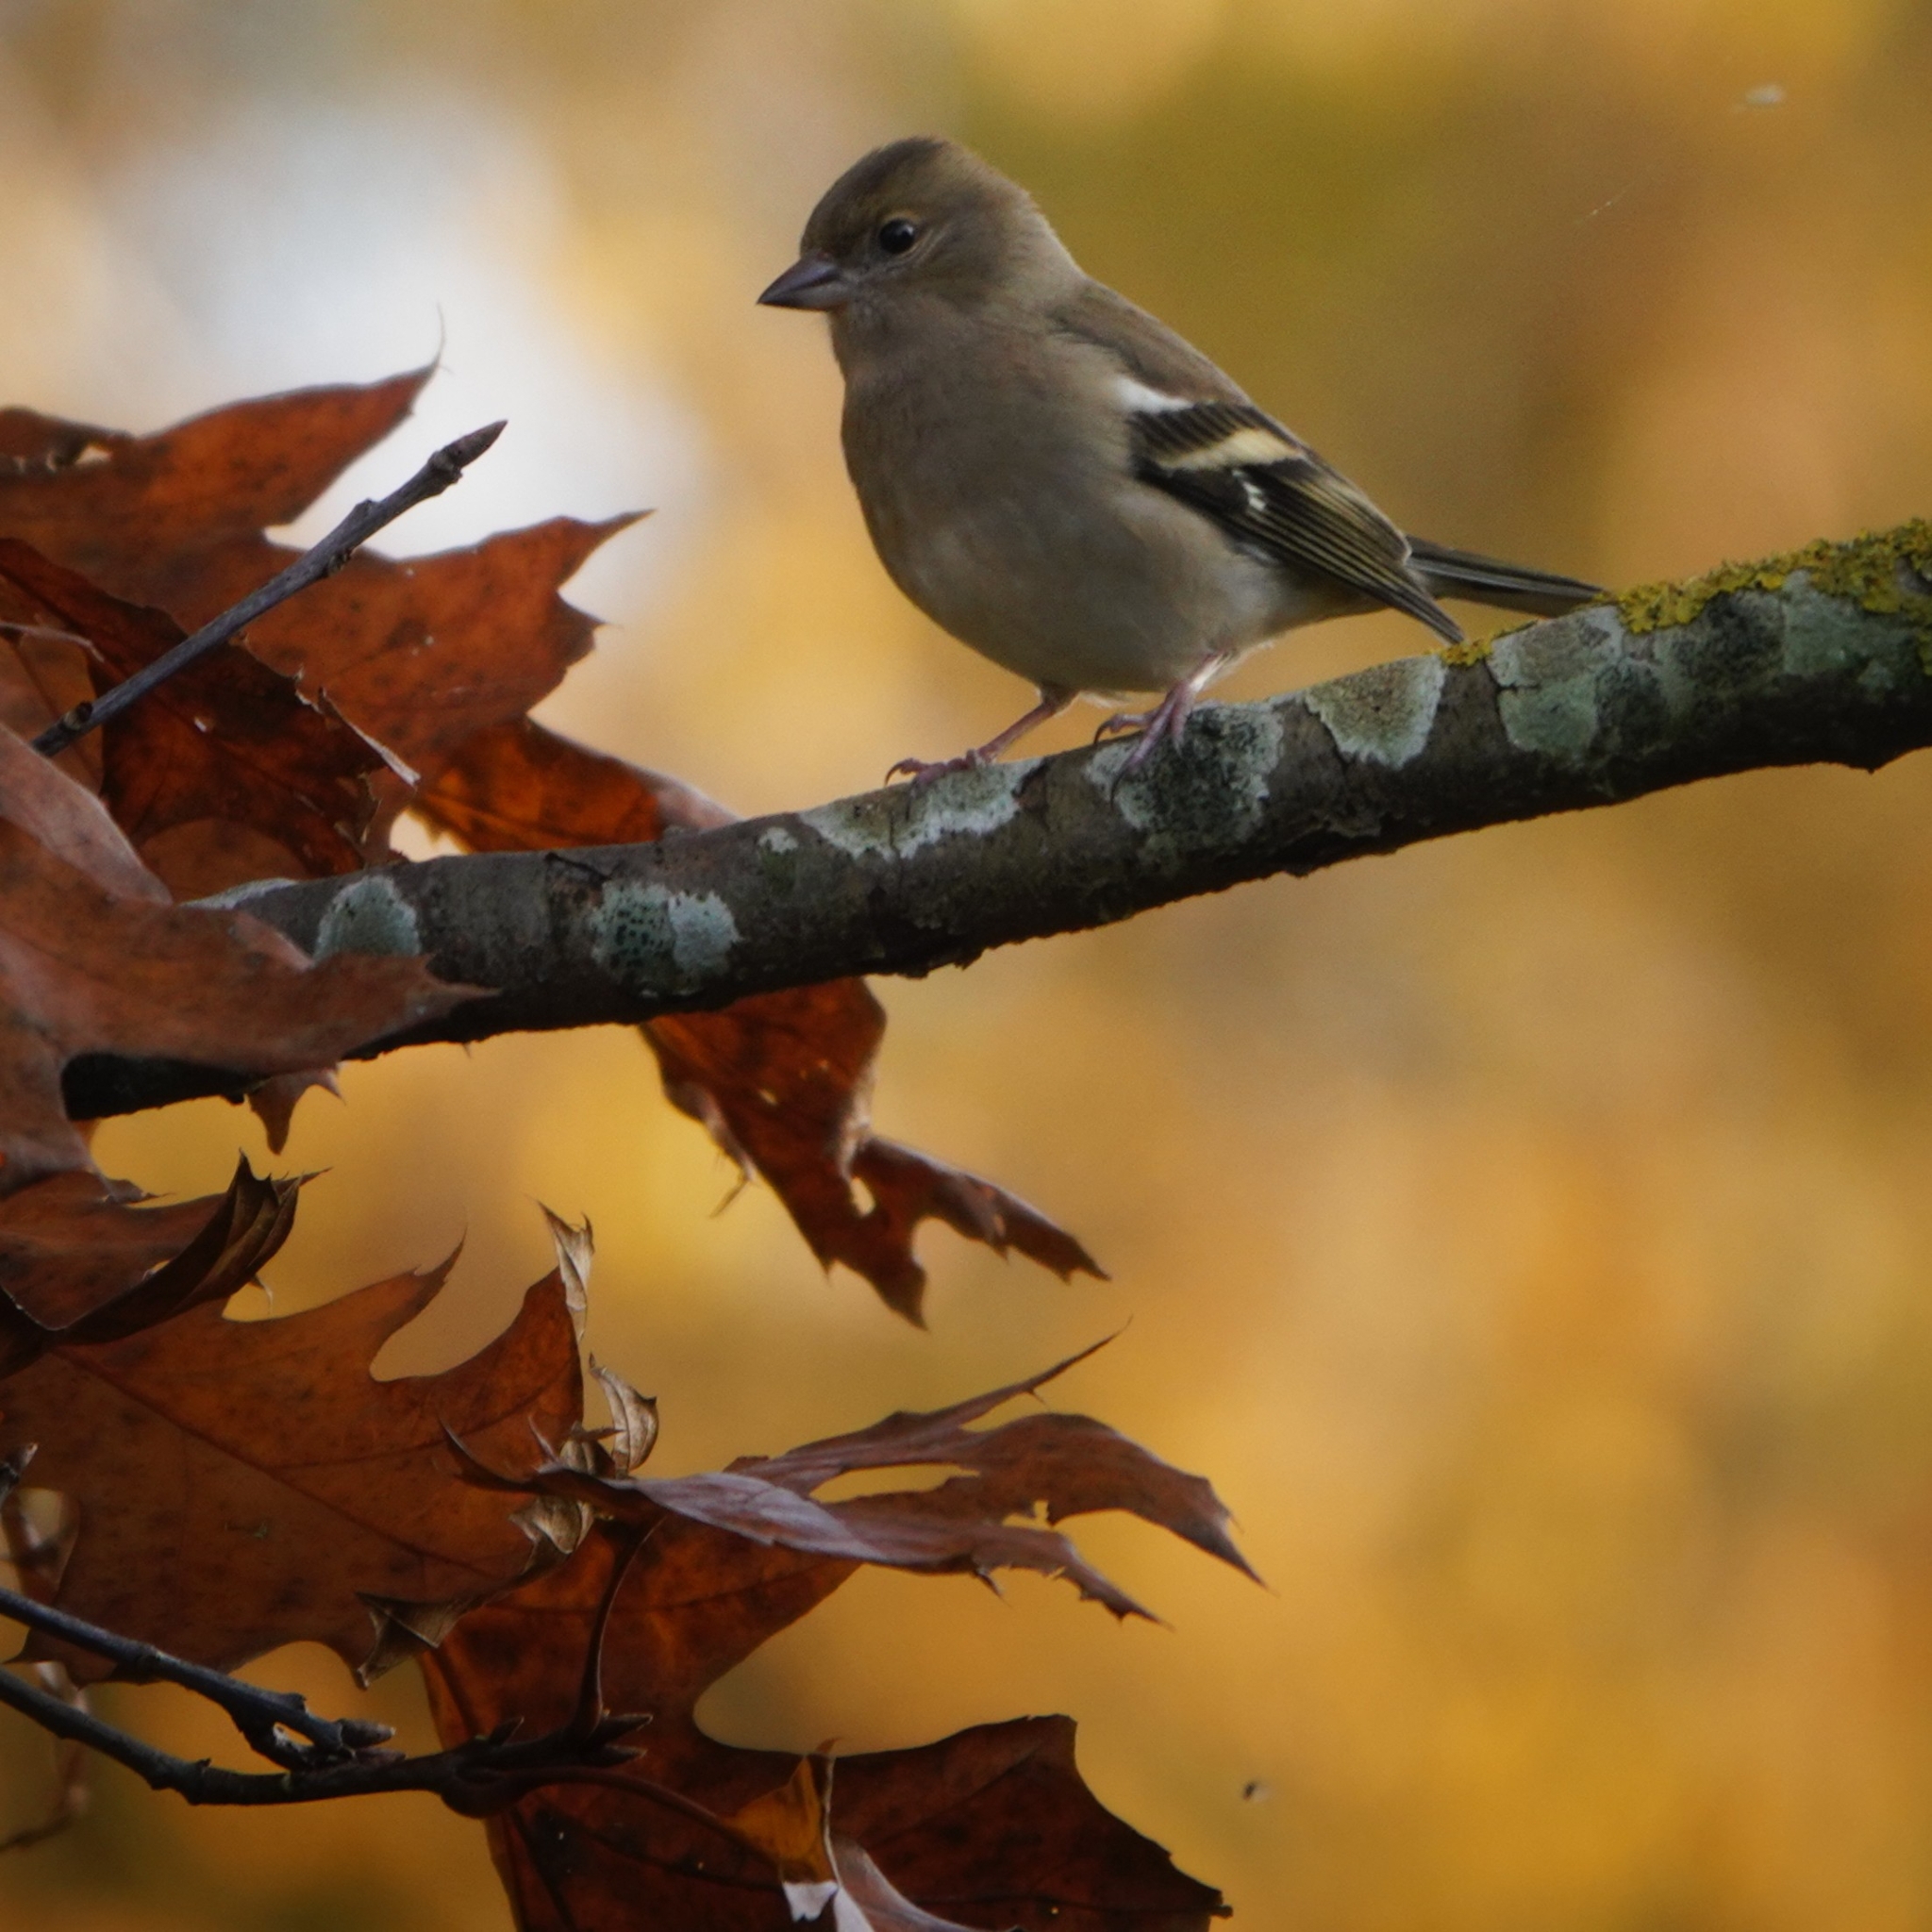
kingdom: Animalia
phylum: Chordata
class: Aves
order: Passeriformes
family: Fringillidae
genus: Fringilla
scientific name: Fringilla coelebs
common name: Common chaffinch
